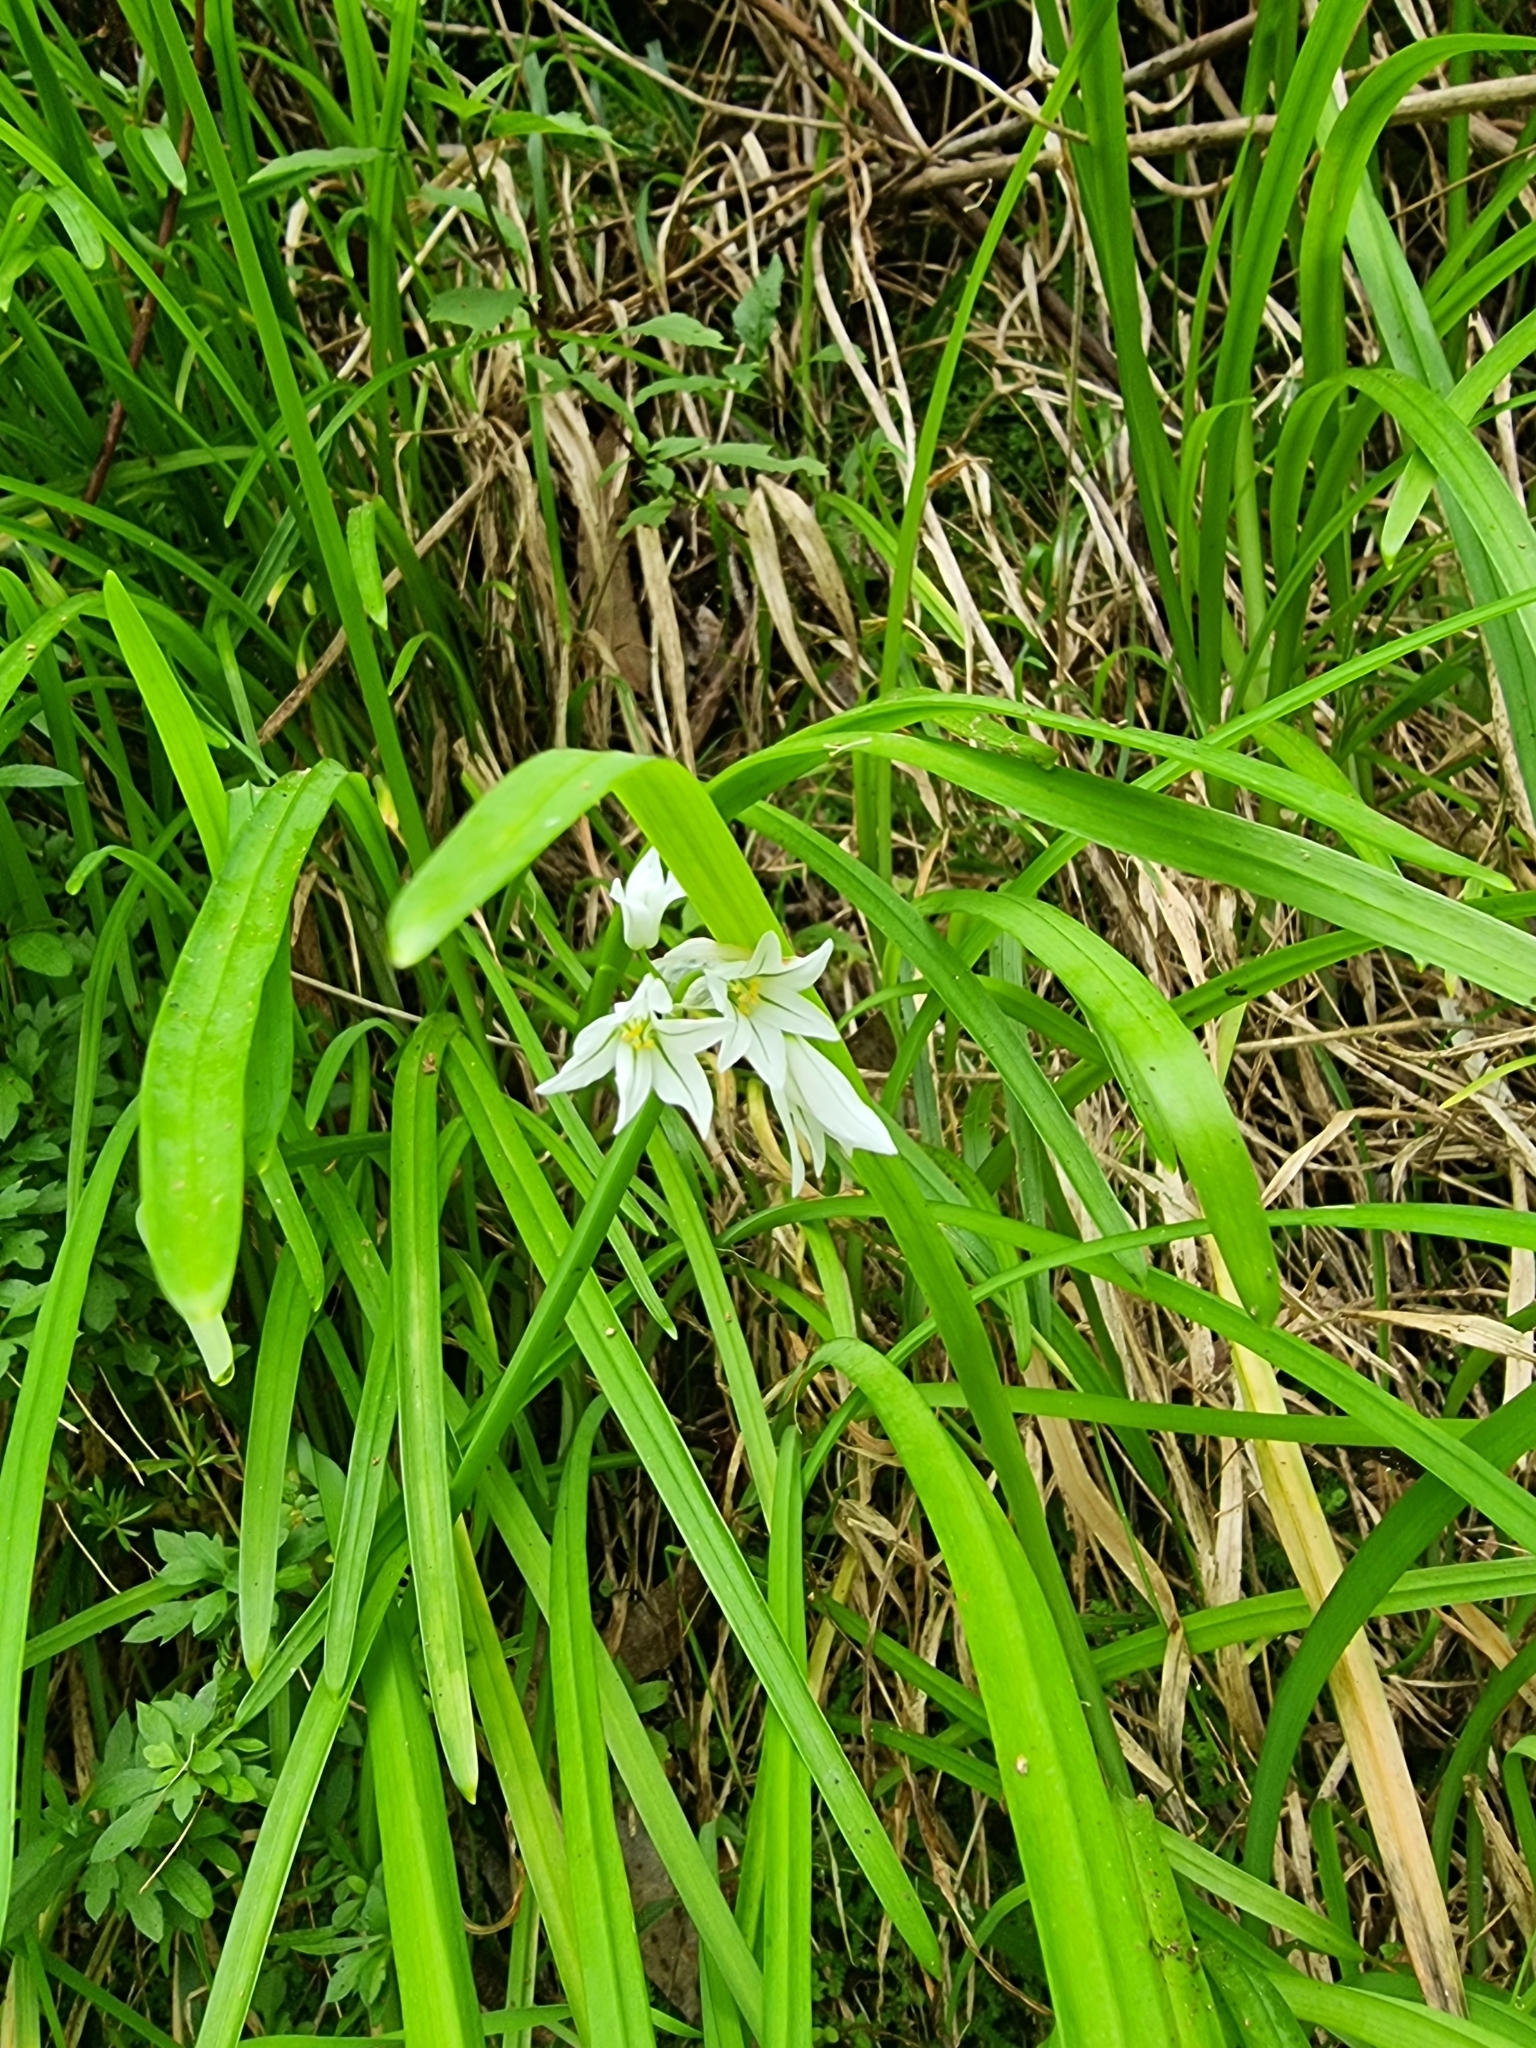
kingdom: Plantae
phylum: Tracheophyta
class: Liliopsida
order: Asparagales
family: Amaryllidaceae
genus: Allium
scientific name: Allium triquetrum
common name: Three-cornered garlic
